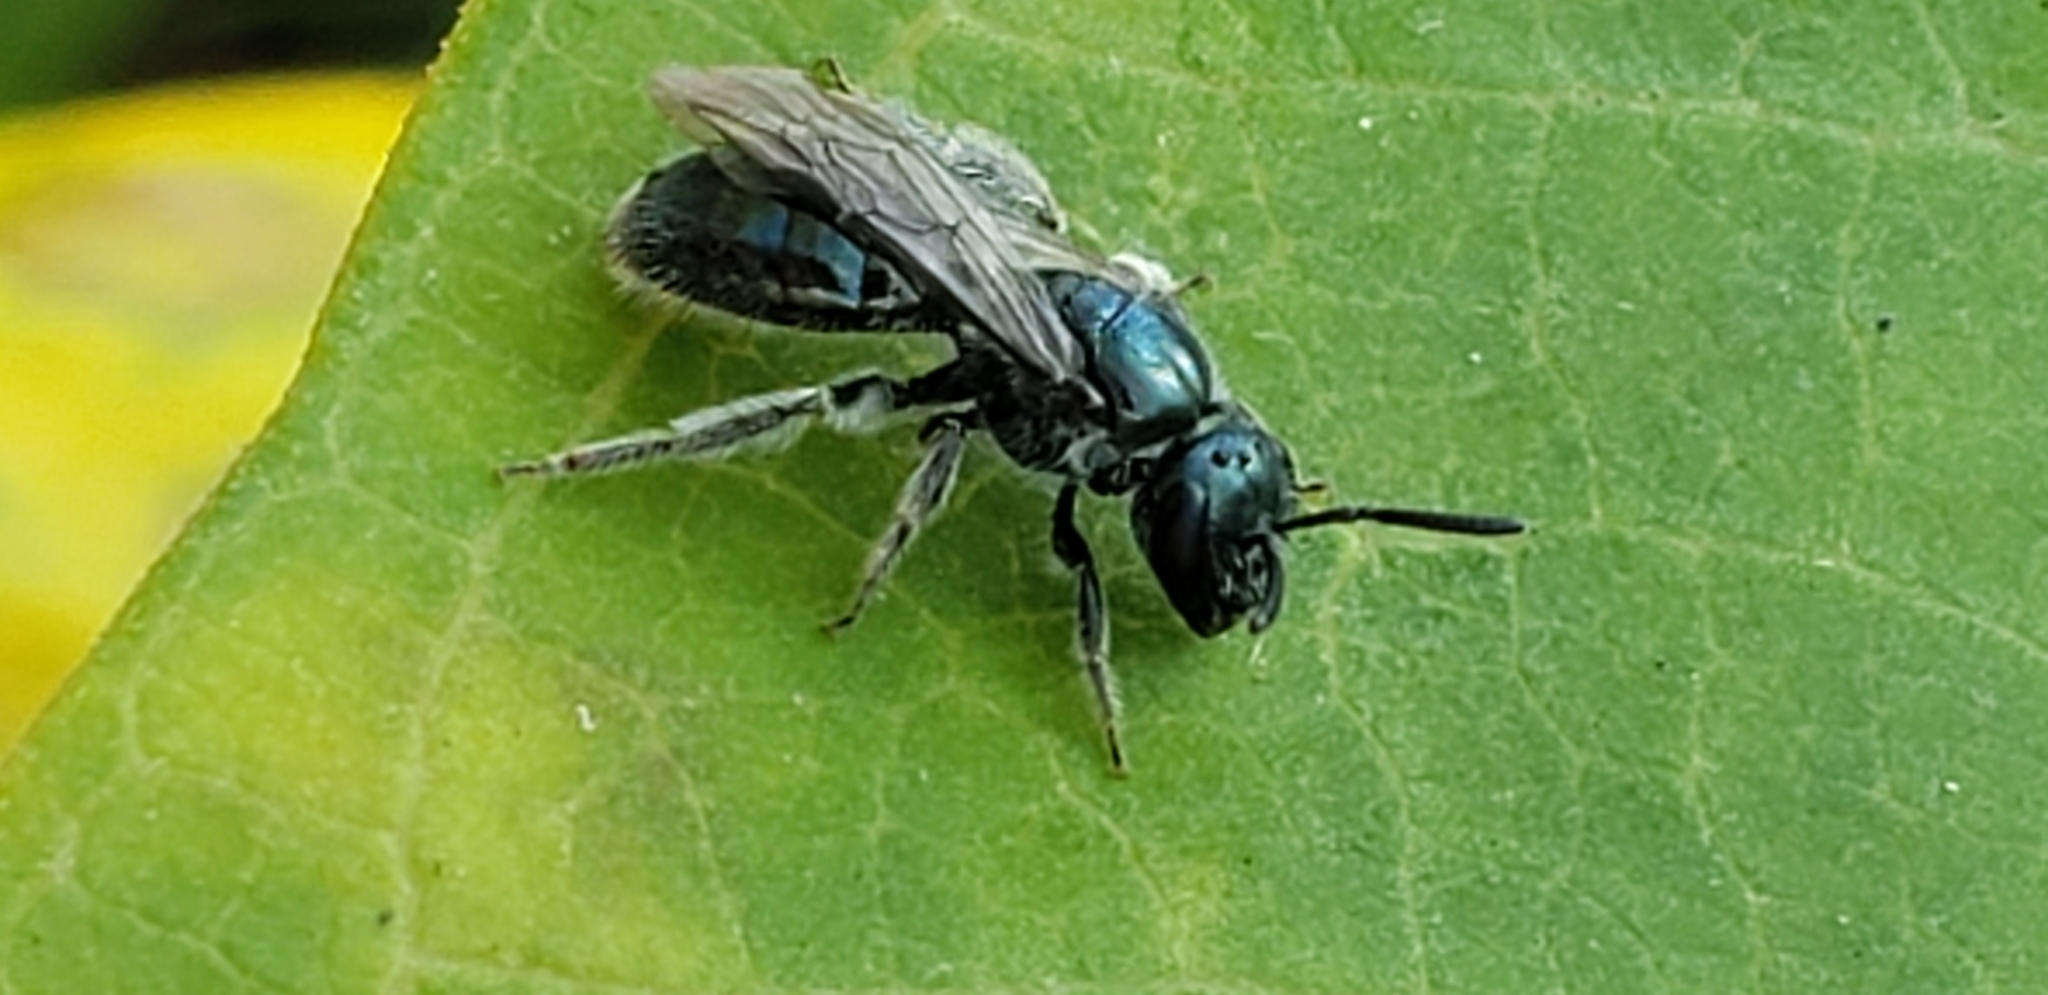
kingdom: Animalia
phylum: Arthropoda
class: Insecta
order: Hymenoptera
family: Halictidae
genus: Lasioglossum
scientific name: Lasioglossum coeruleum
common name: Deep-blue sweat bee
